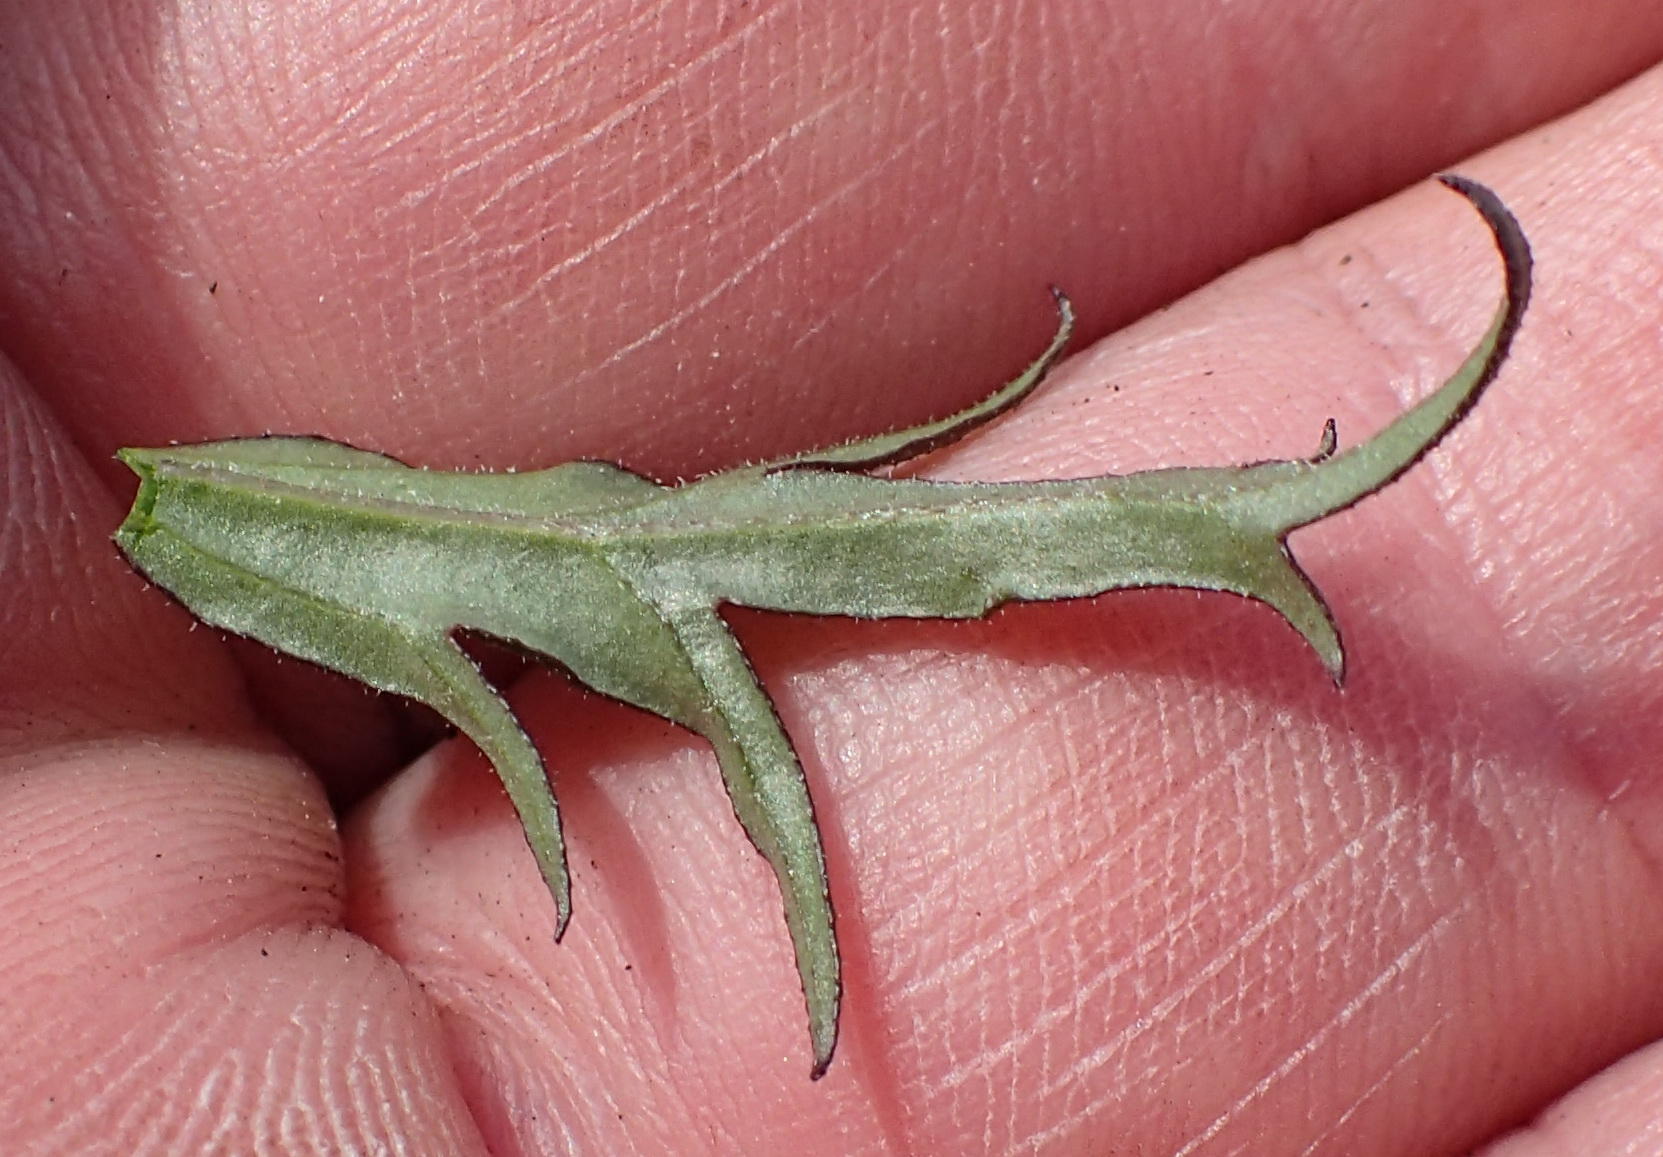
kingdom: Plantae
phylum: Tracheophyta
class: Magnoliopsida
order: Lamiales
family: Orobanchaceae
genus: Graderia
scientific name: Graderia scabra
